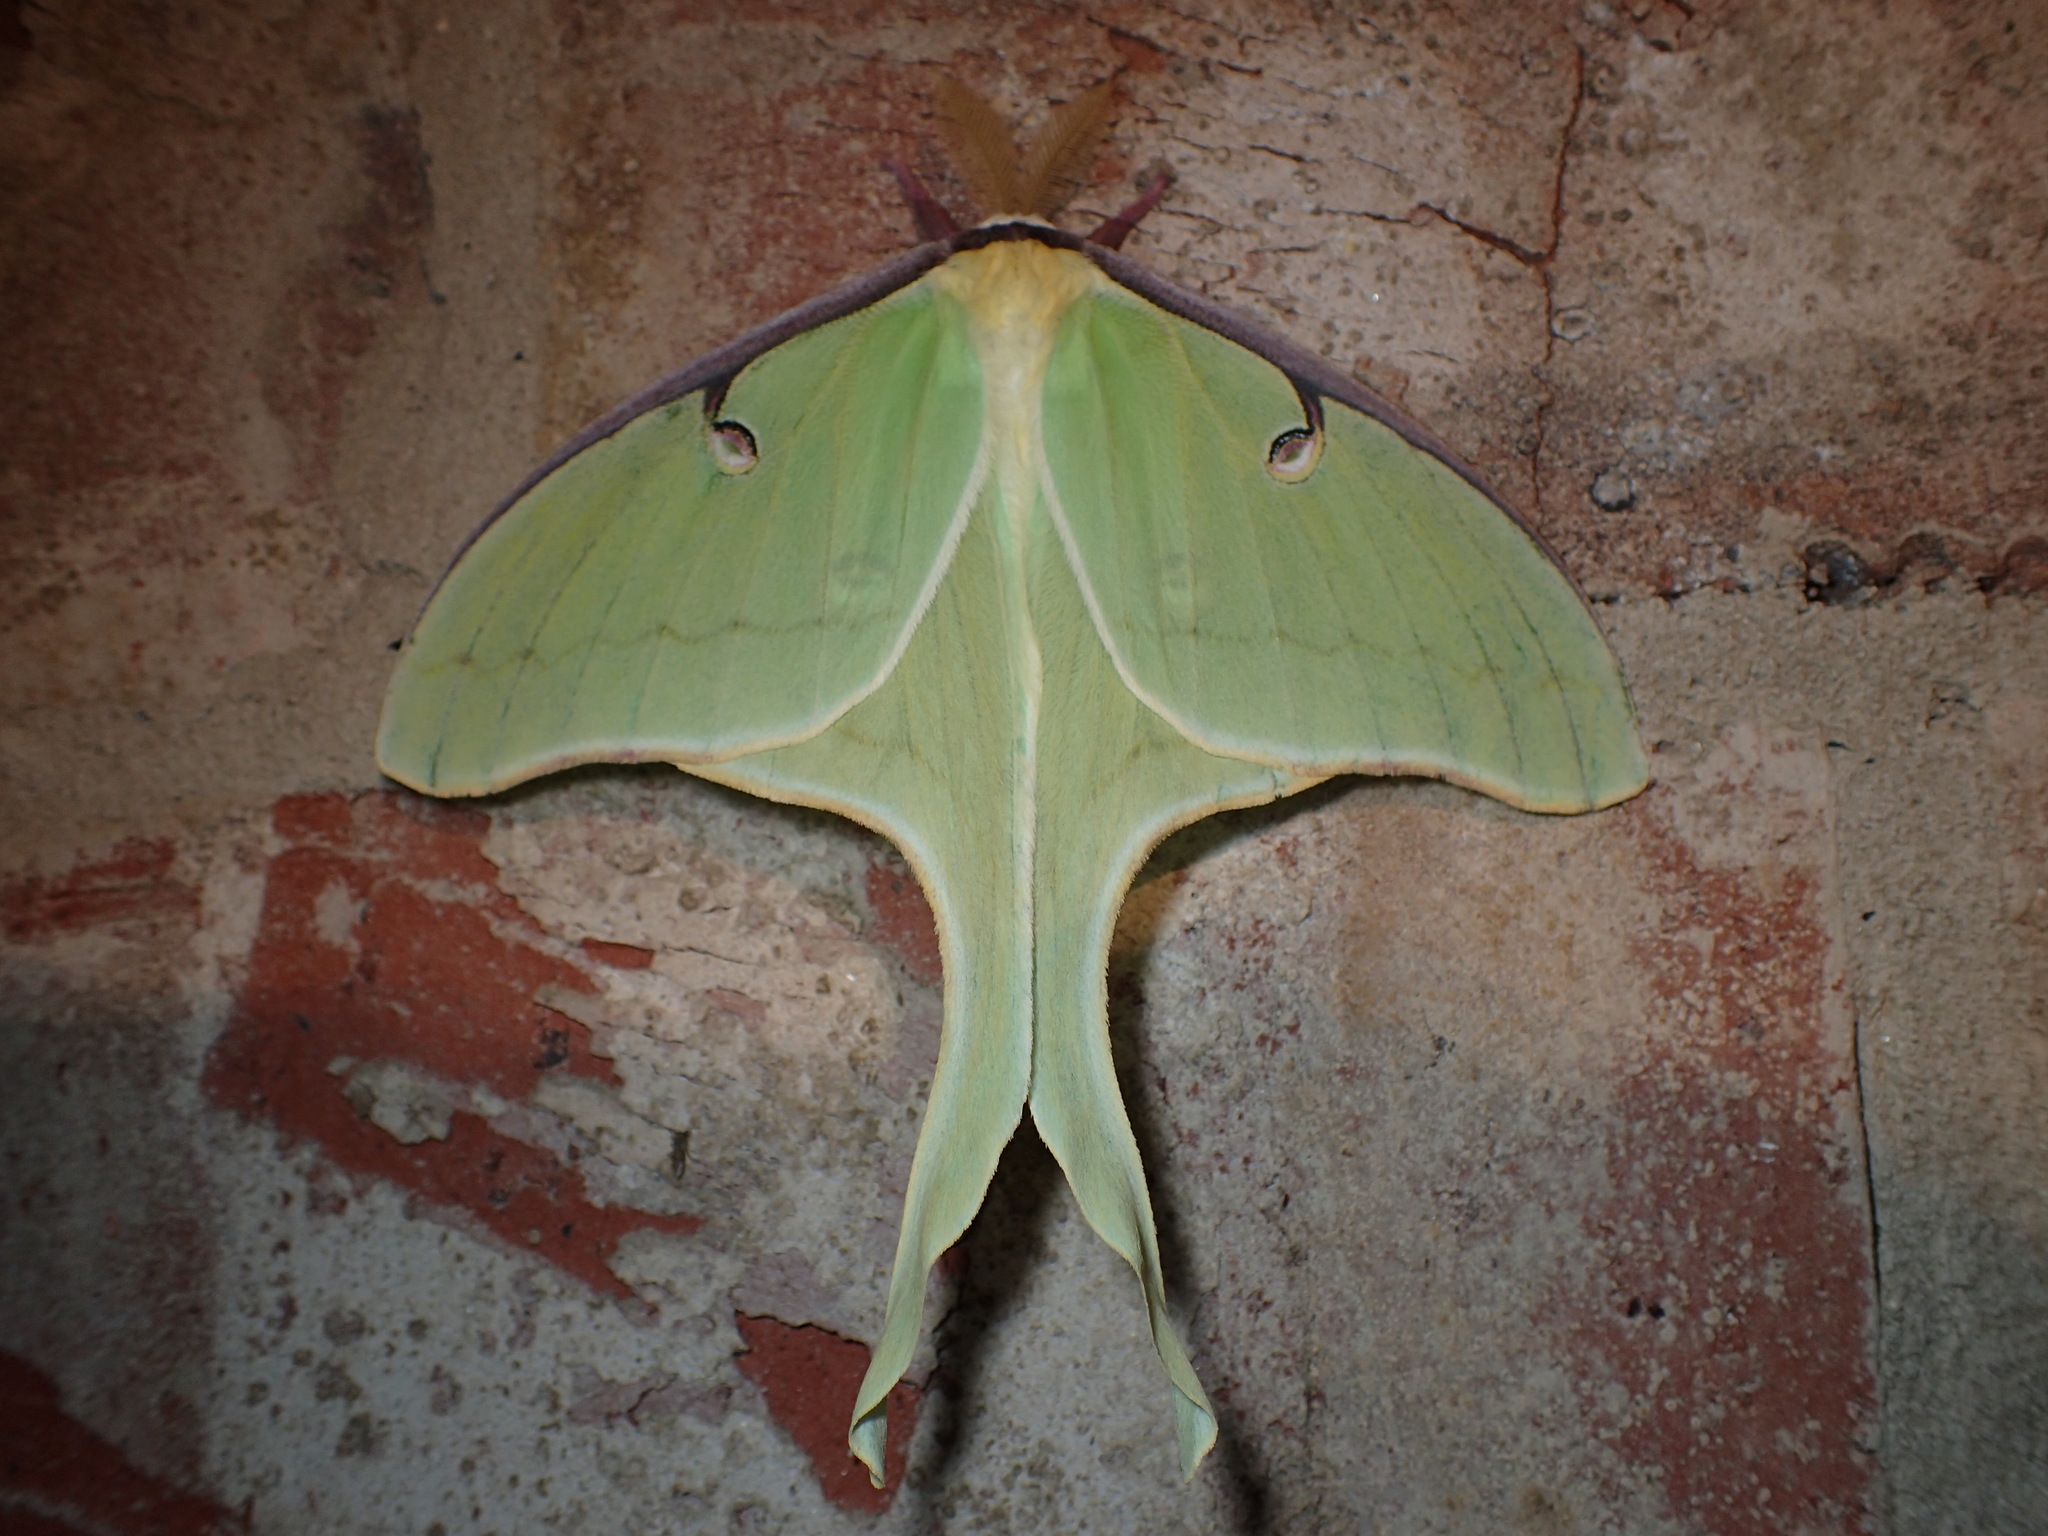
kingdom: Animalia
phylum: Arthropoda
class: Insecta
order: Lepidoptera
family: Saturniidae
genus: Actias
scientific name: Actias luna
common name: Luna moth
